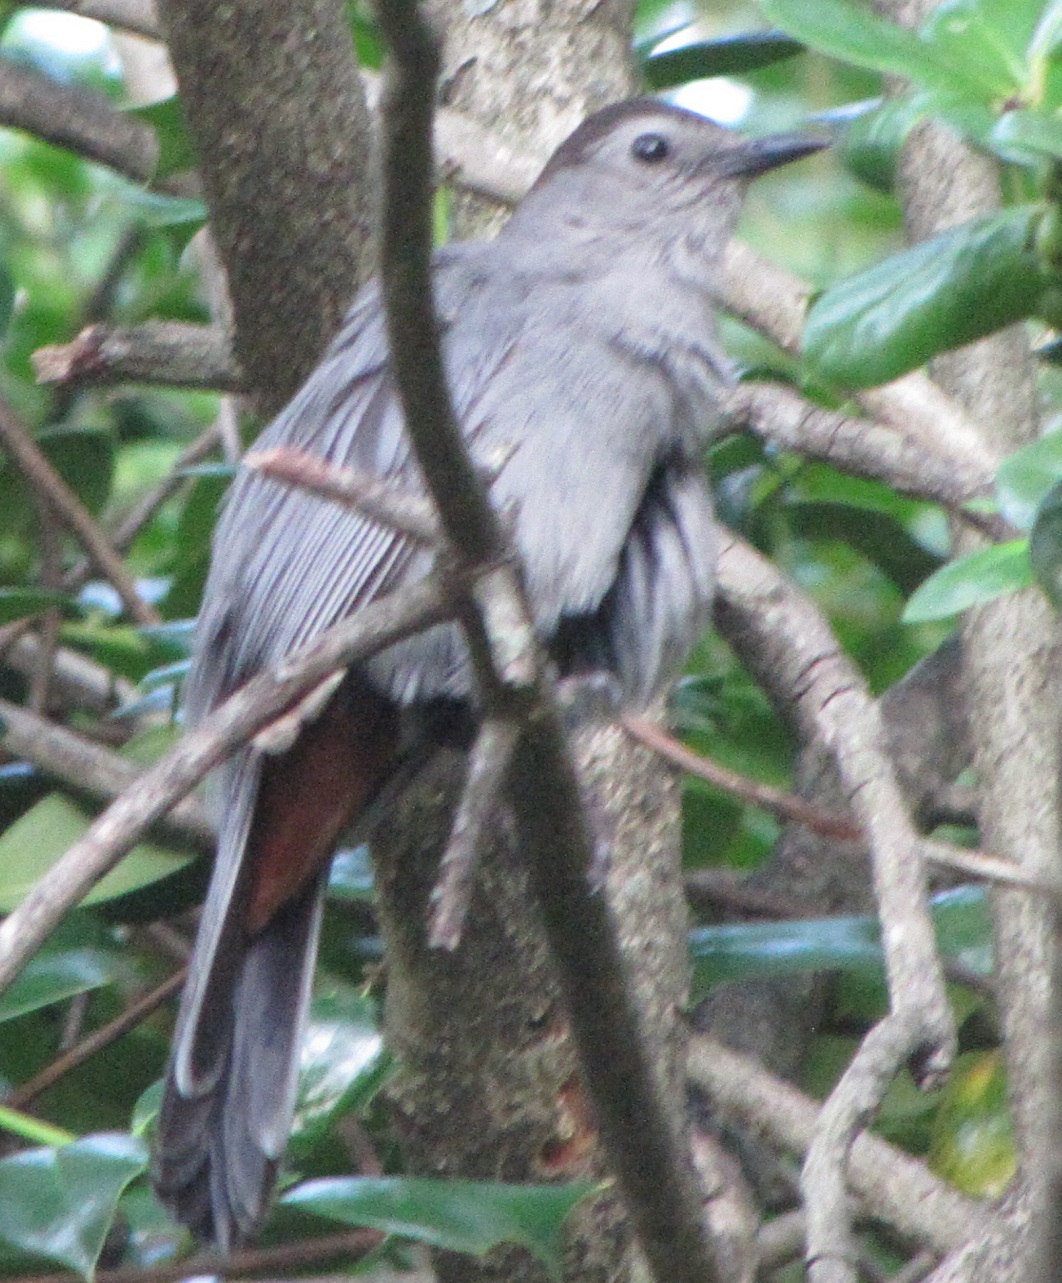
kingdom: Animalia
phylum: Chordata
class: Aves
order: Passeriformes
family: Mimidae
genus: Dumetella
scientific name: Dumetella carolinensis
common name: Gray catbird
